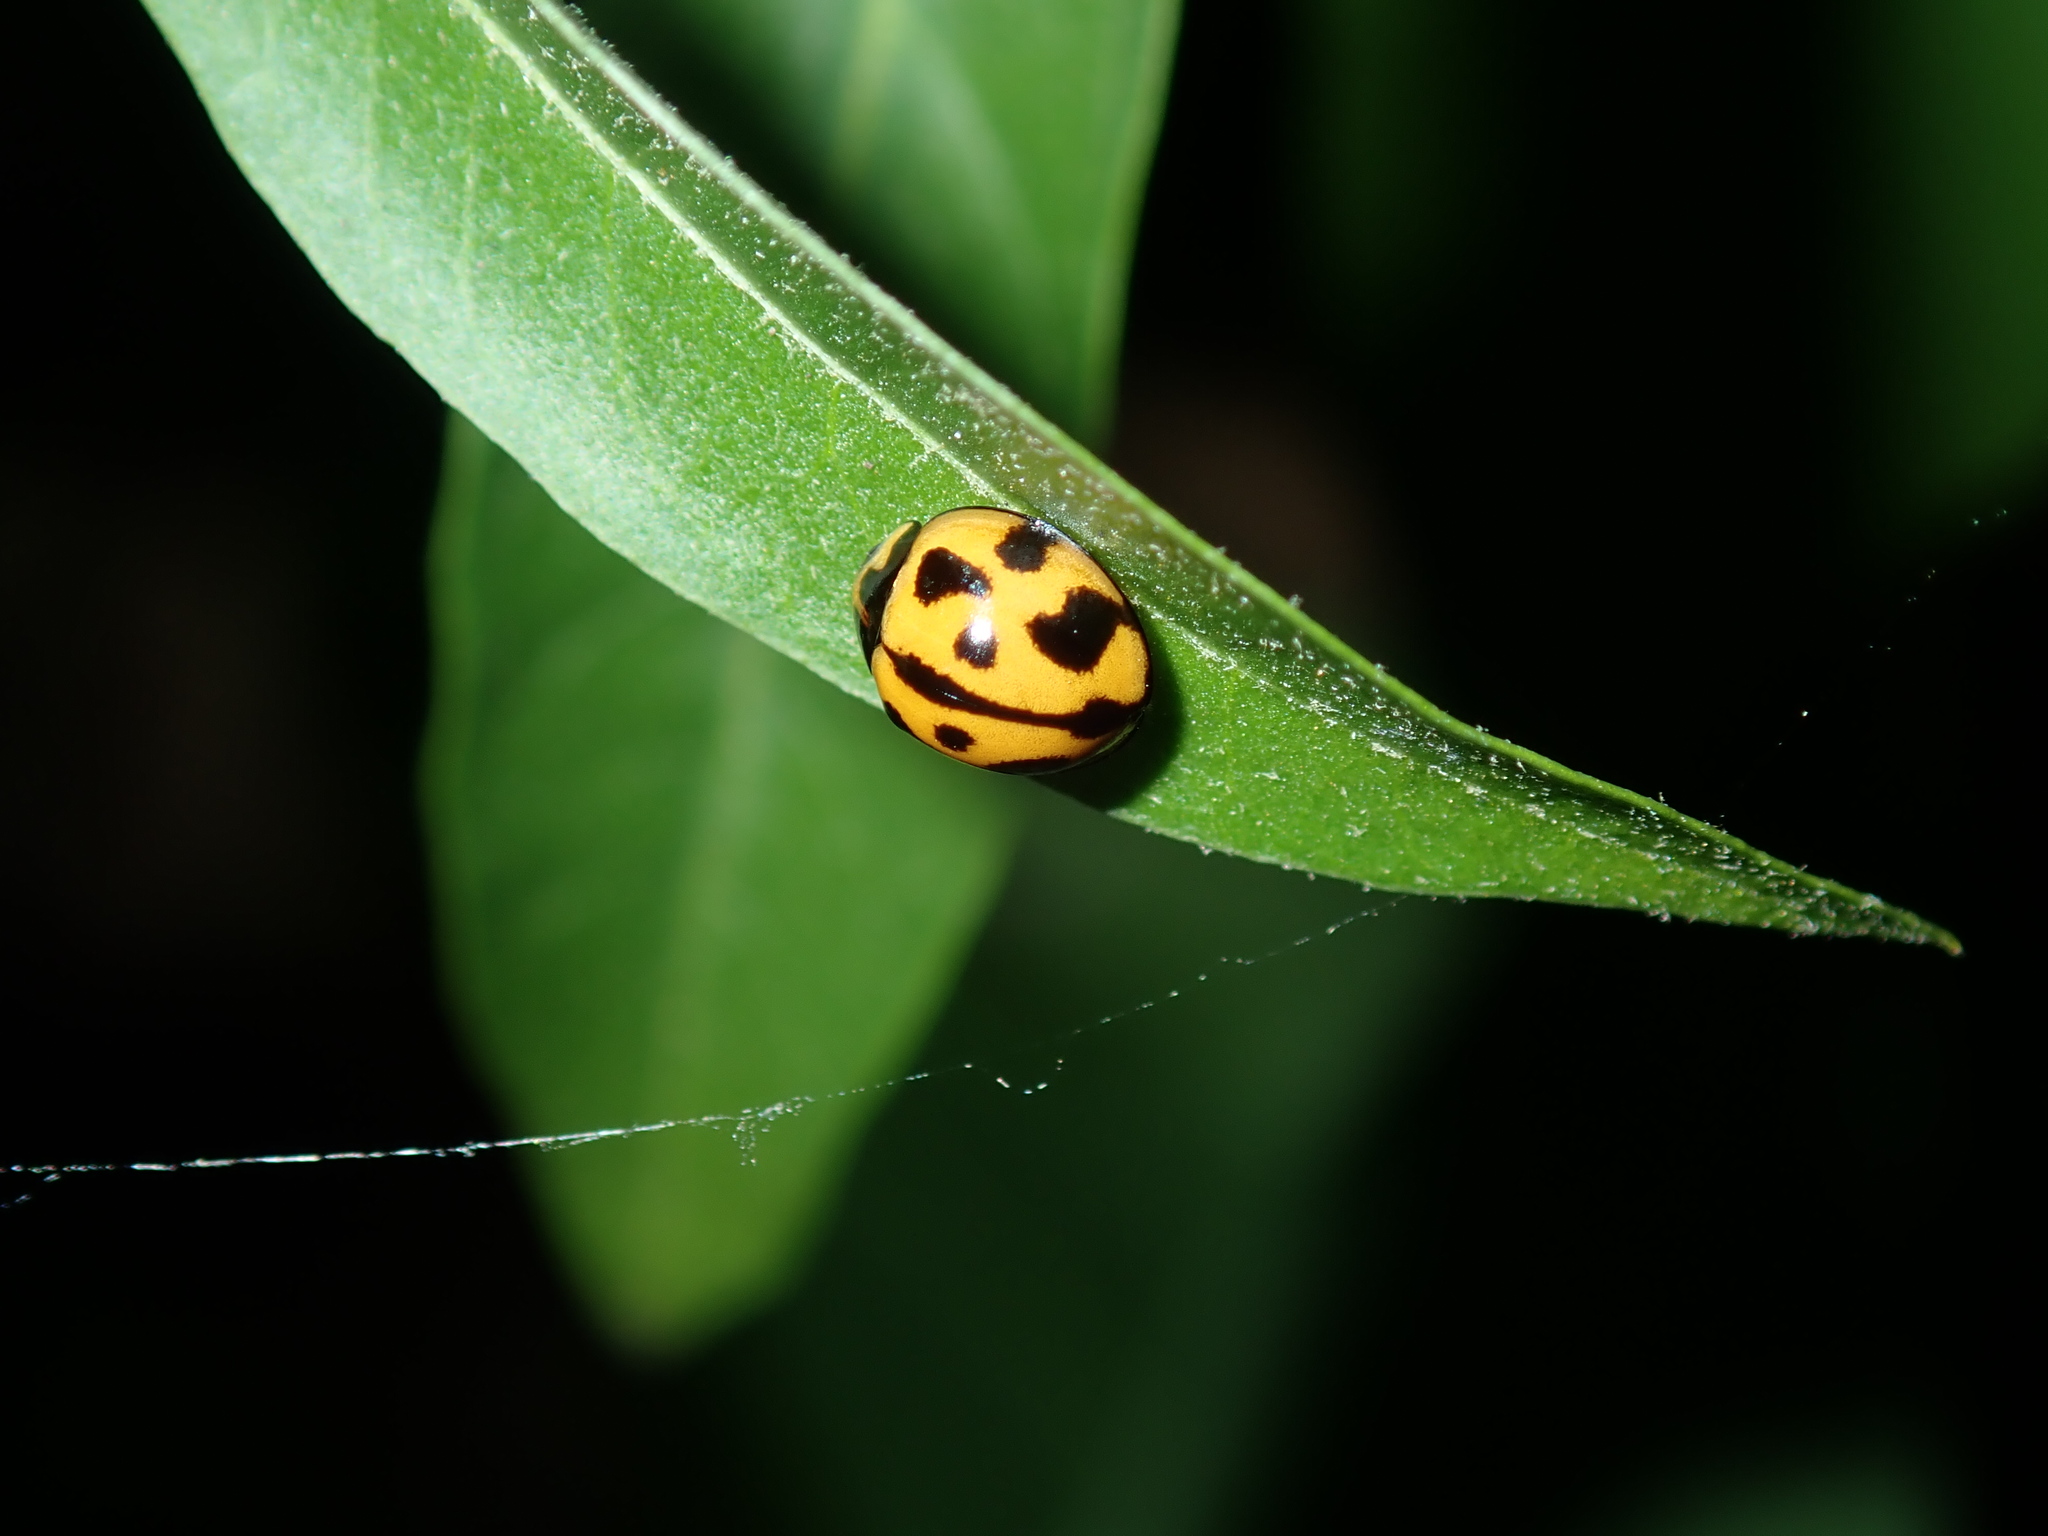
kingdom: Animalia
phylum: Arthropoda
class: Insecta
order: Coleoptera
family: Coccinellidae
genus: Coelophora
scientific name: Coelophora inaequalis
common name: Common australian lady beetle
